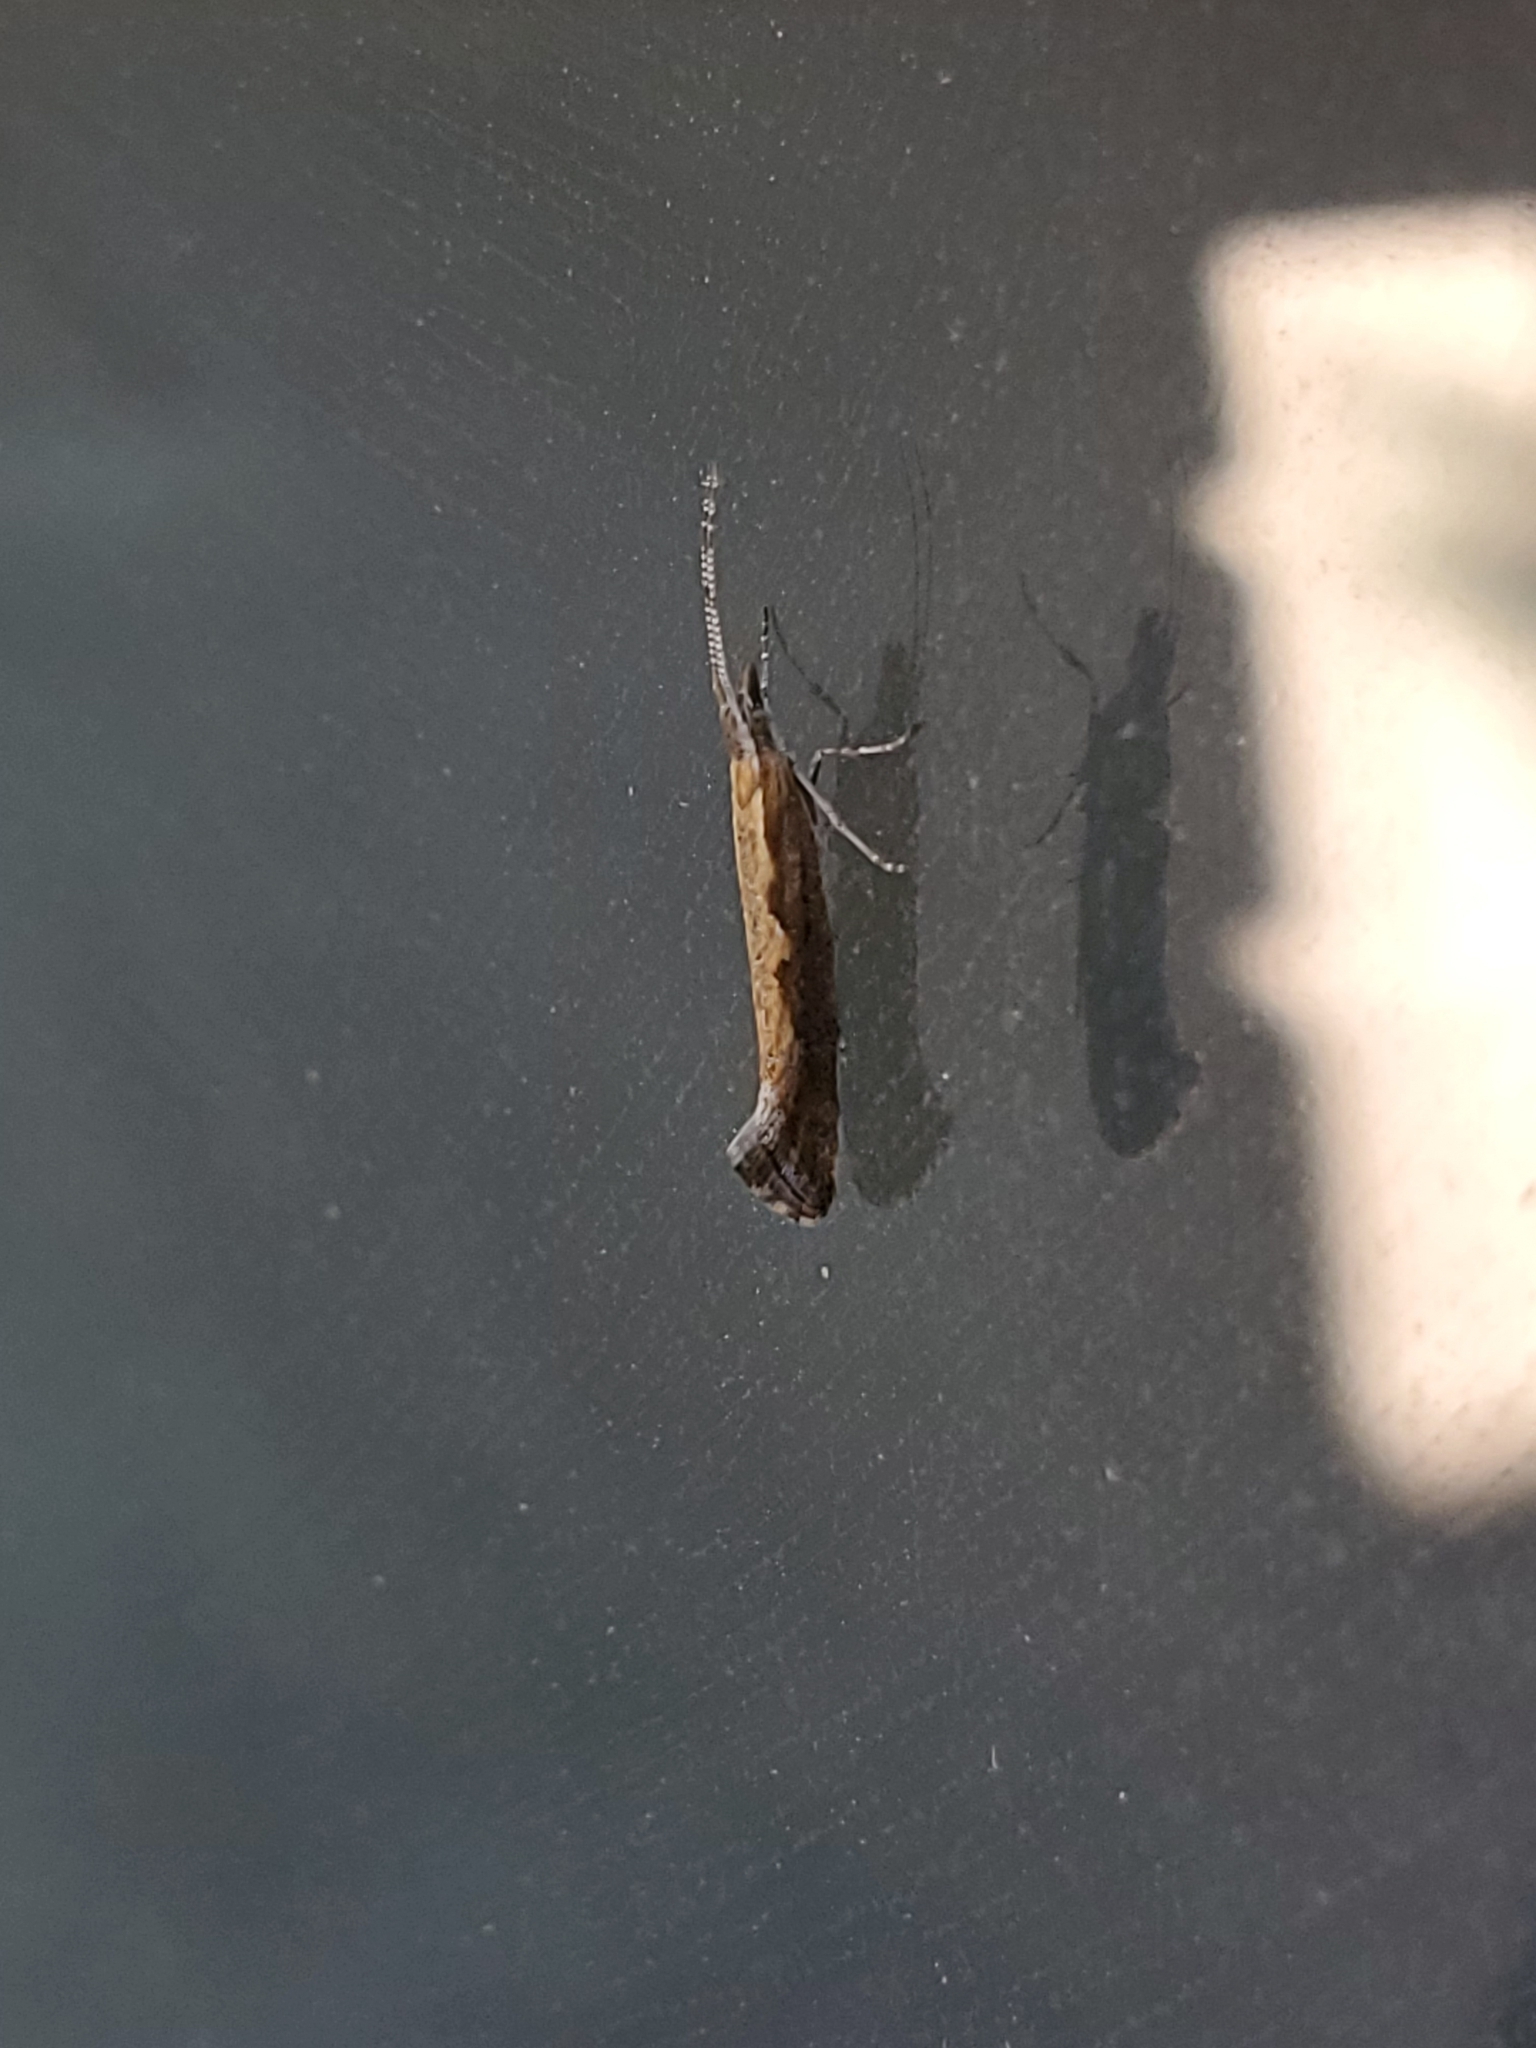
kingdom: Animalia
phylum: Arthropoda
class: Insecta
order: Lepidoptera
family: Plutellidae
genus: Plutella
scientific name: Plutella xylostella
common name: Diamond-back moth
